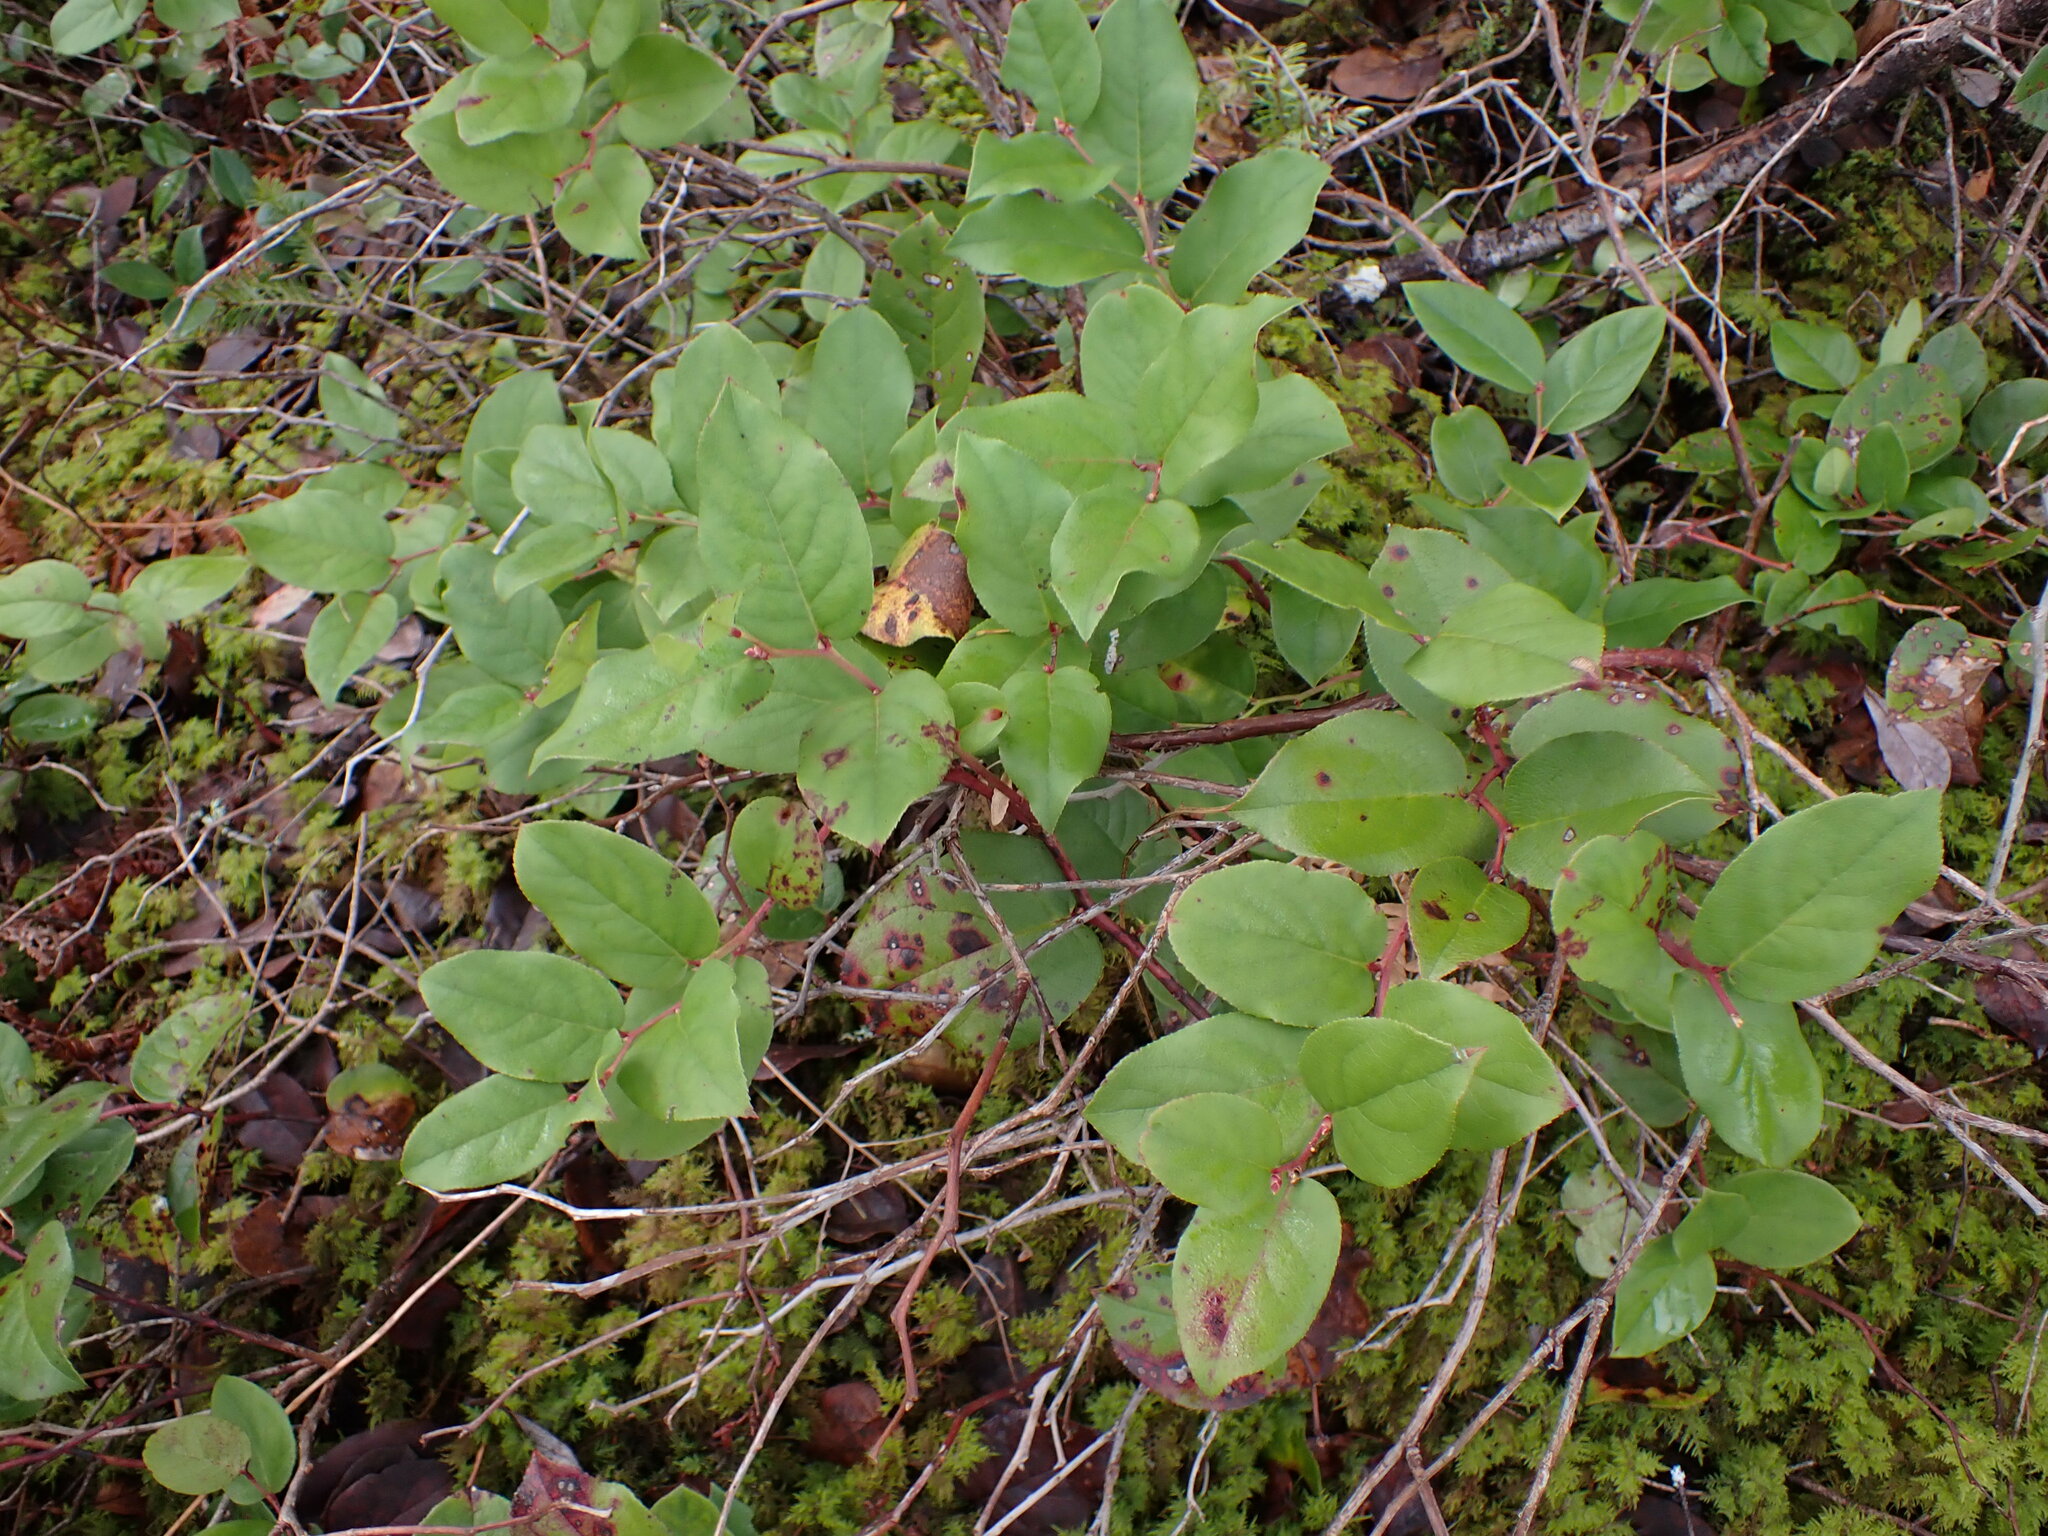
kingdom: Plantae
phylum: Tracheophyta
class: Magnoliopsida
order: Ericales
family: Ericaceae
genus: Gaultheria
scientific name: Gaultheria shallon
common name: Shallon
